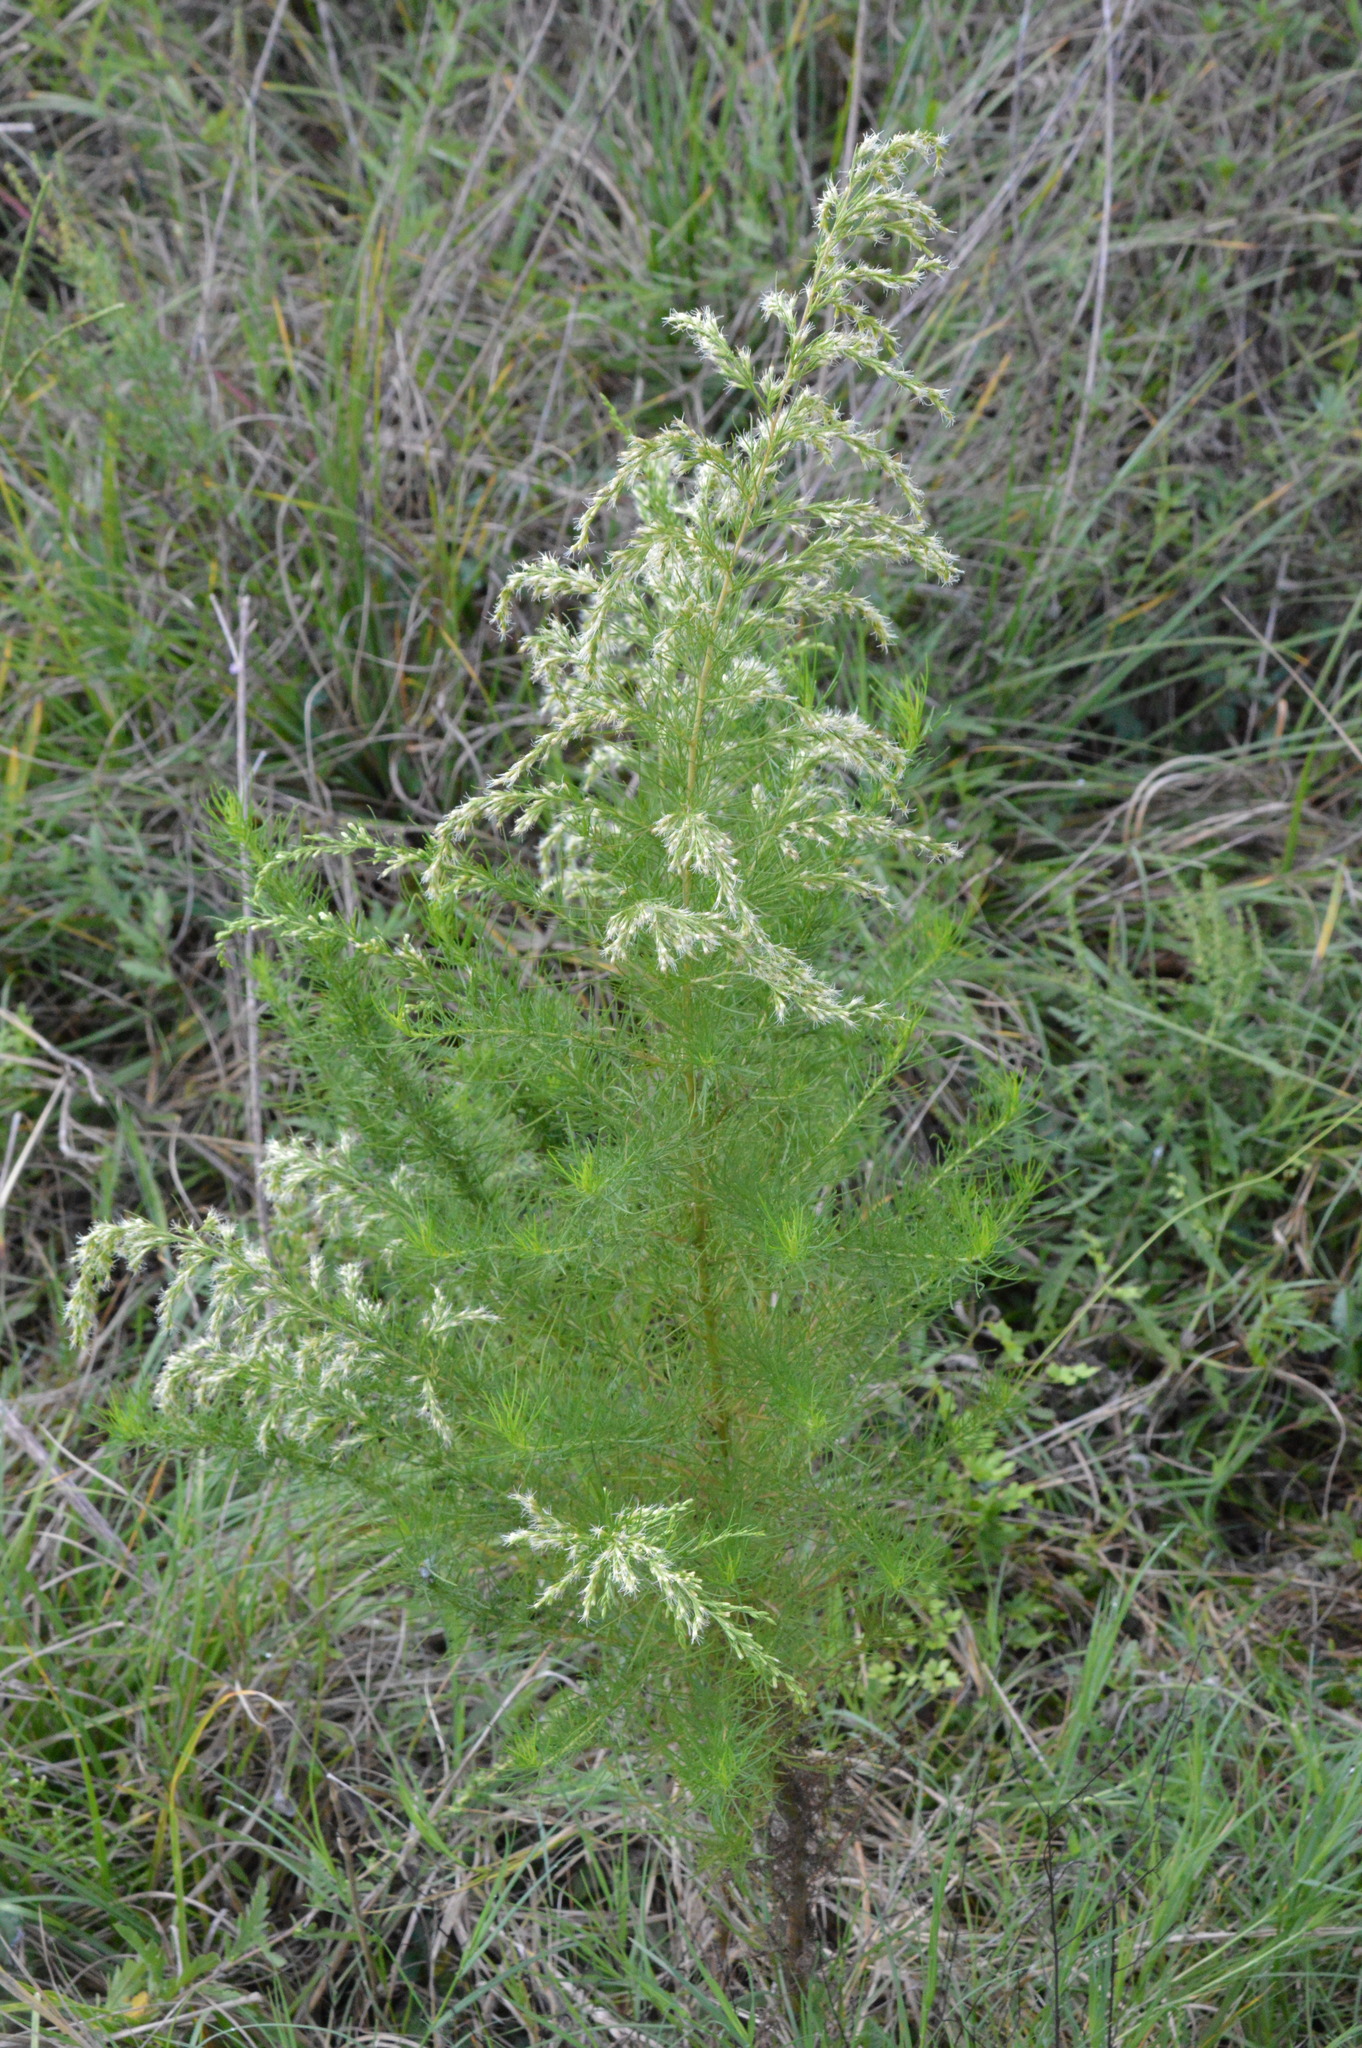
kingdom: Plantae
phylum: Tracheophyta
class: Magnoliopsida
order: Asterales
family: Asteraceae
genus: Eupatorium
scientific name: Eupatorium capillifolium
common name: Dog-fennel
